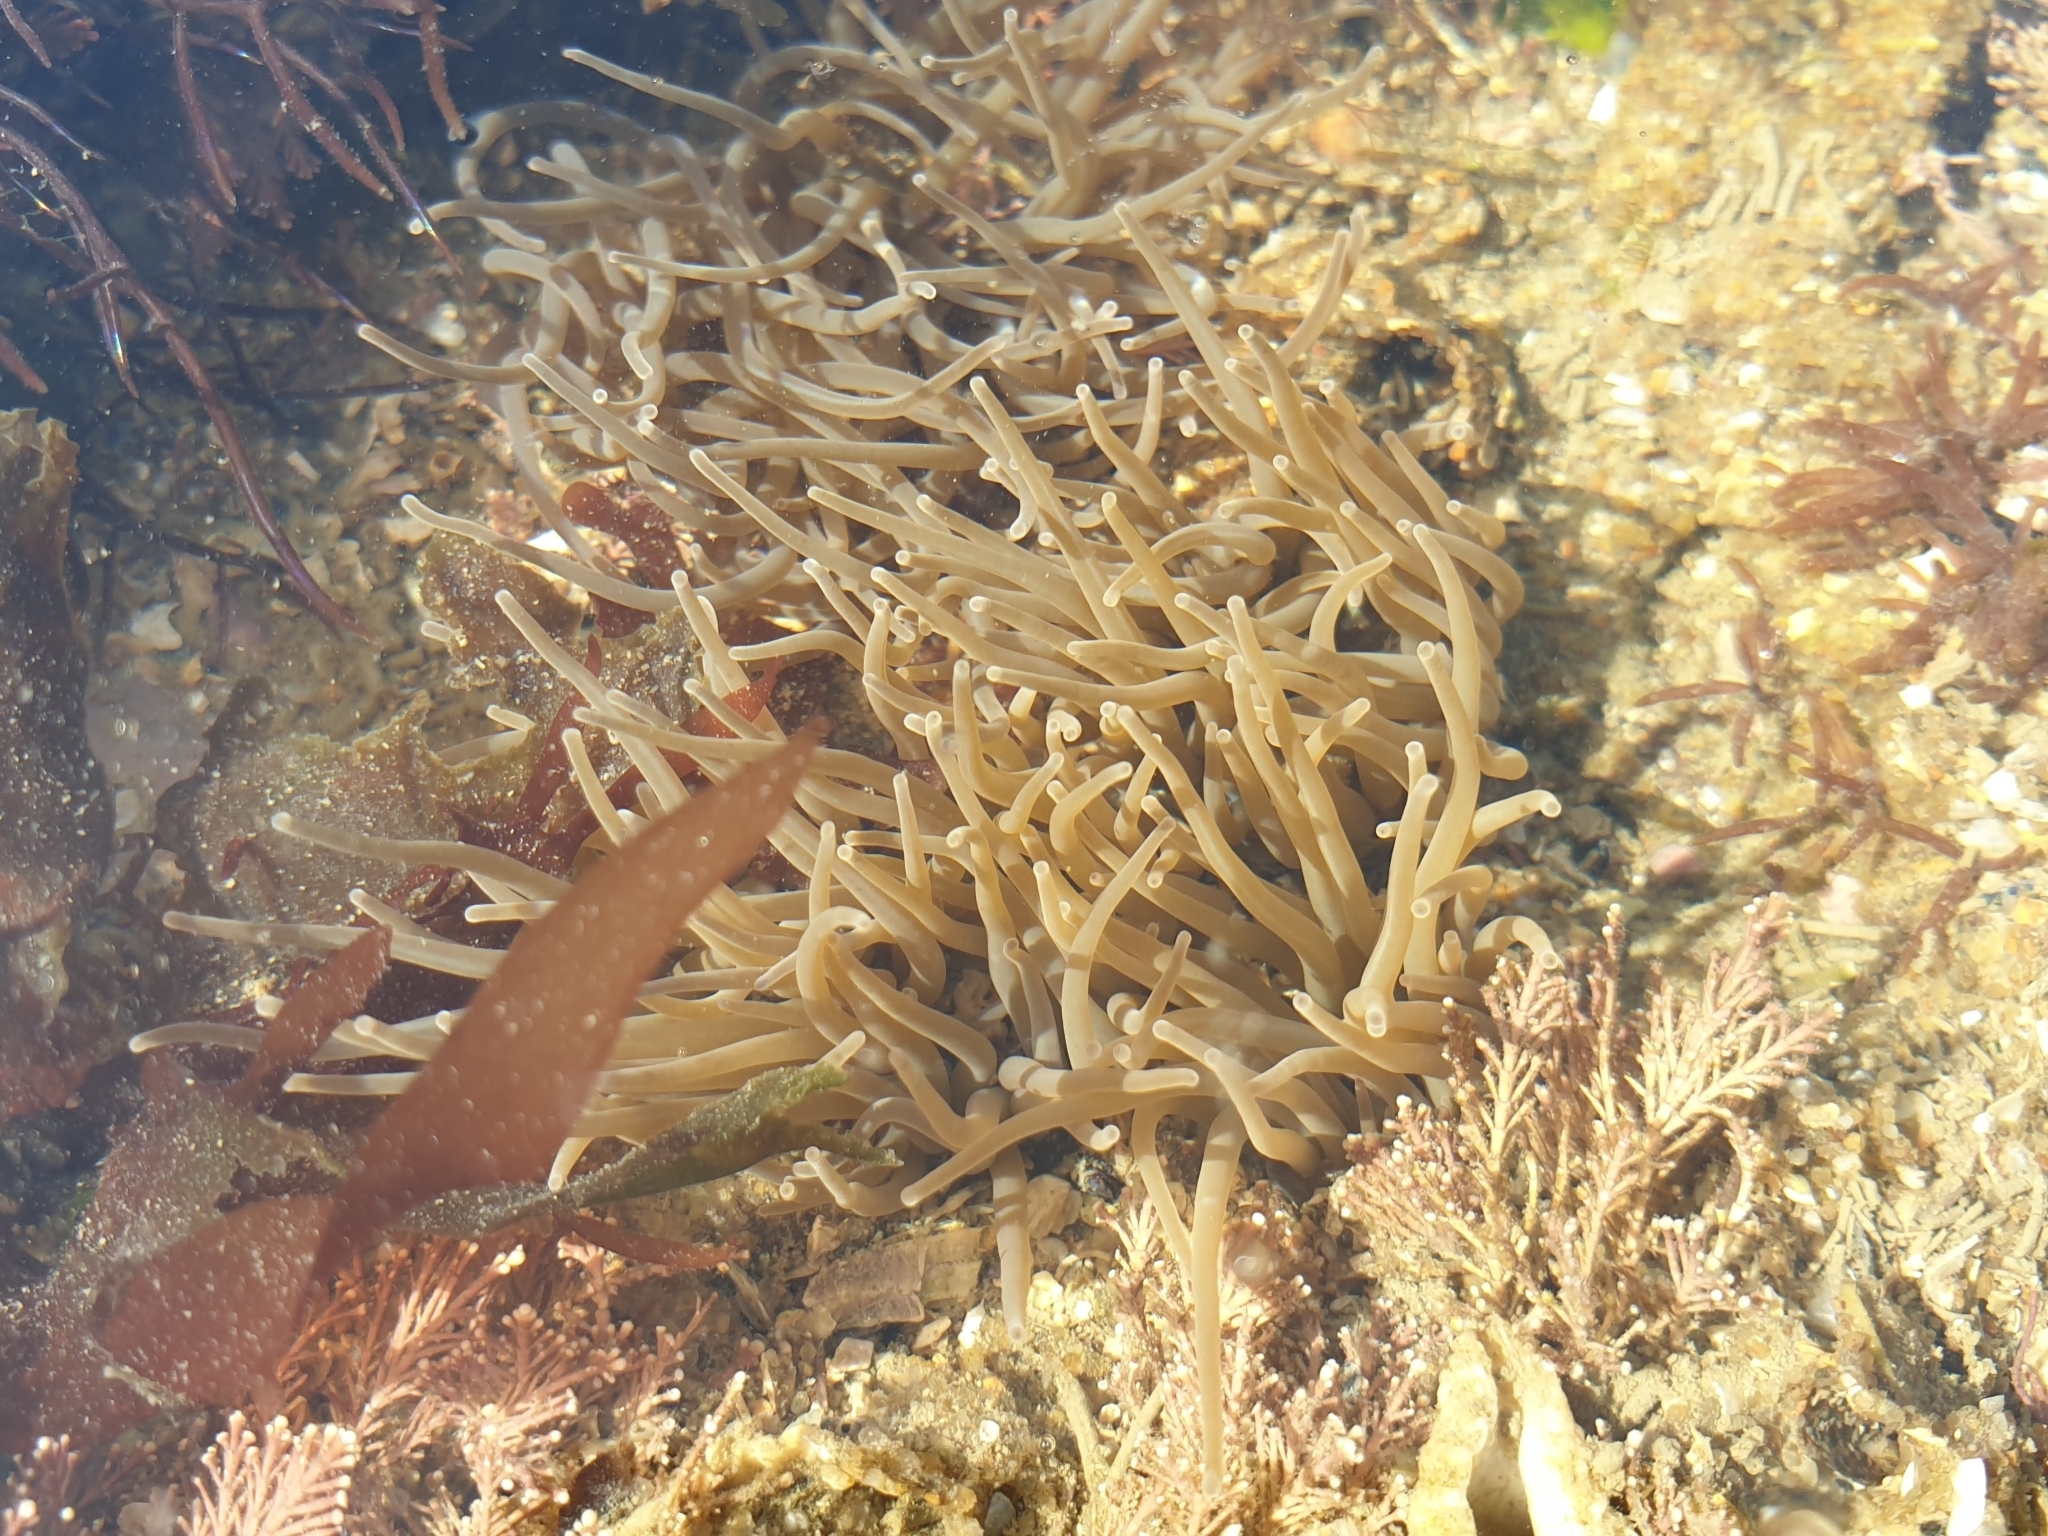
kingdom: Animalia
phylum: Cnidaria
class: Anthozoa
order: Actiniaria
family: Actiniidae
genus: Anemonia
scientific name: Anemonia viridis
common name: Snakelocks anemone
